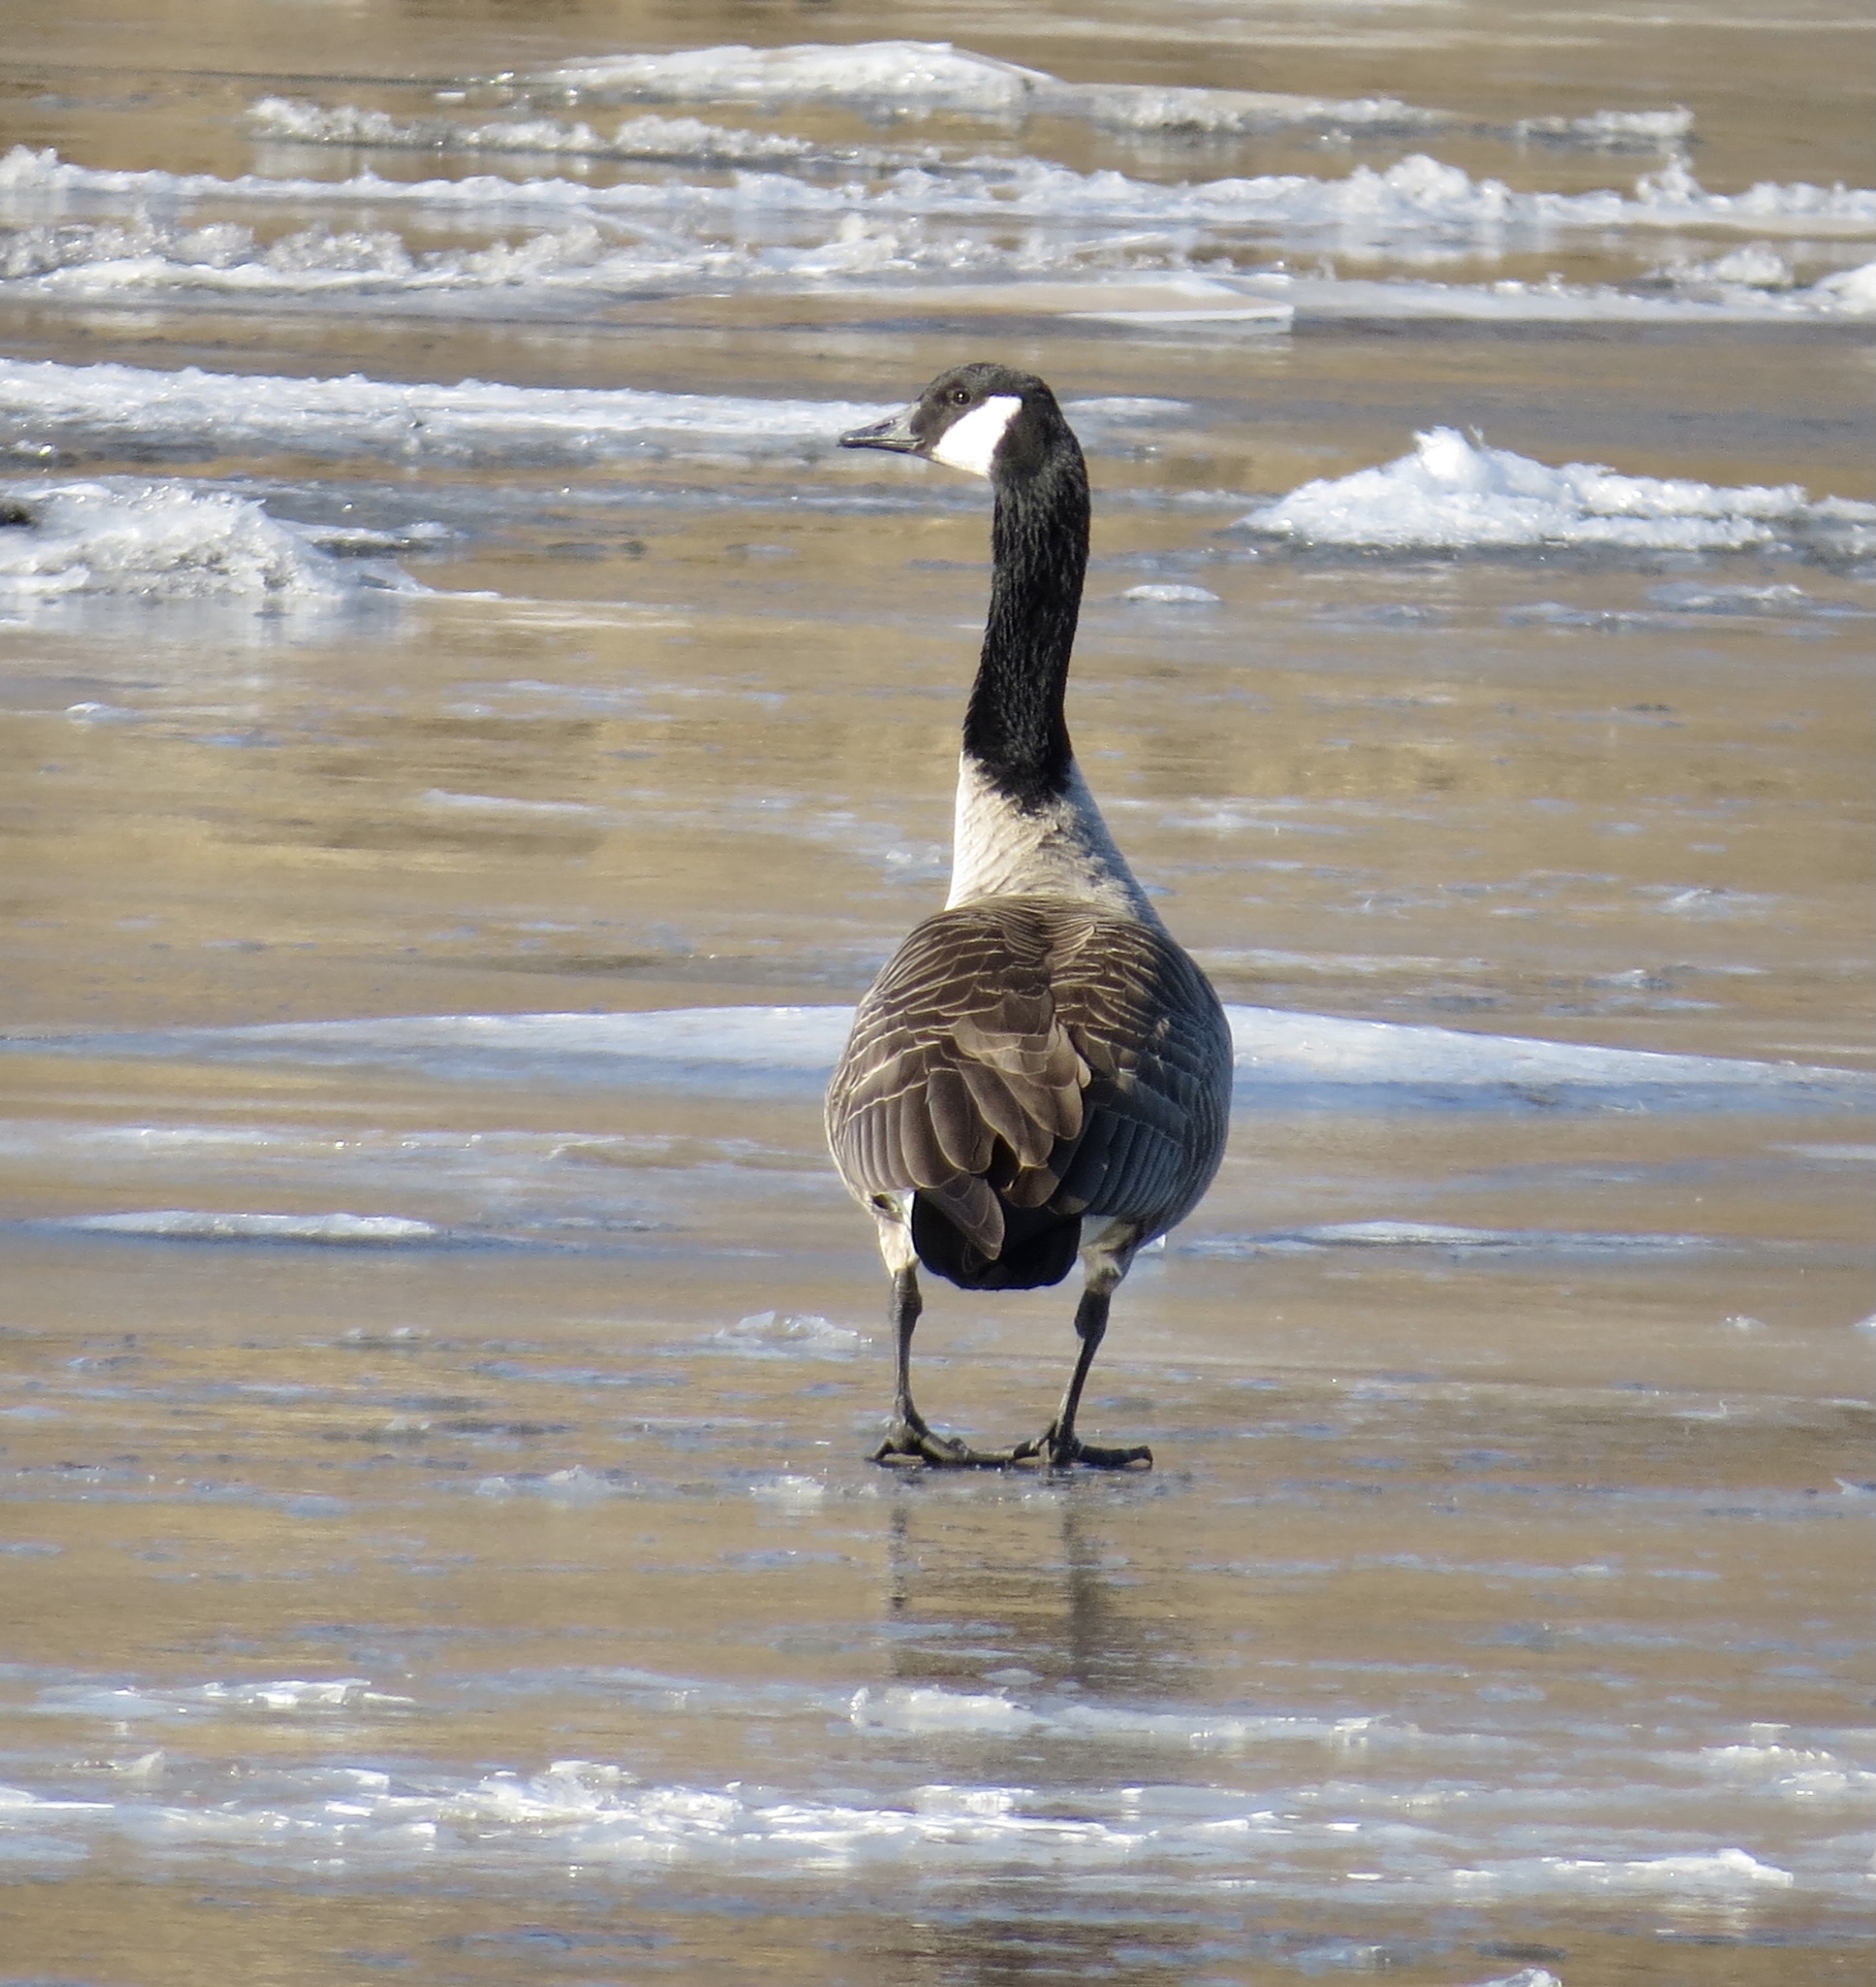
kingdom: Animalia
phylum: Chordata
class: Aves
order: Anseriformes
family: Anatidae
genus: Branta
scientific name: Branta canadensis
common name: Canada goose
